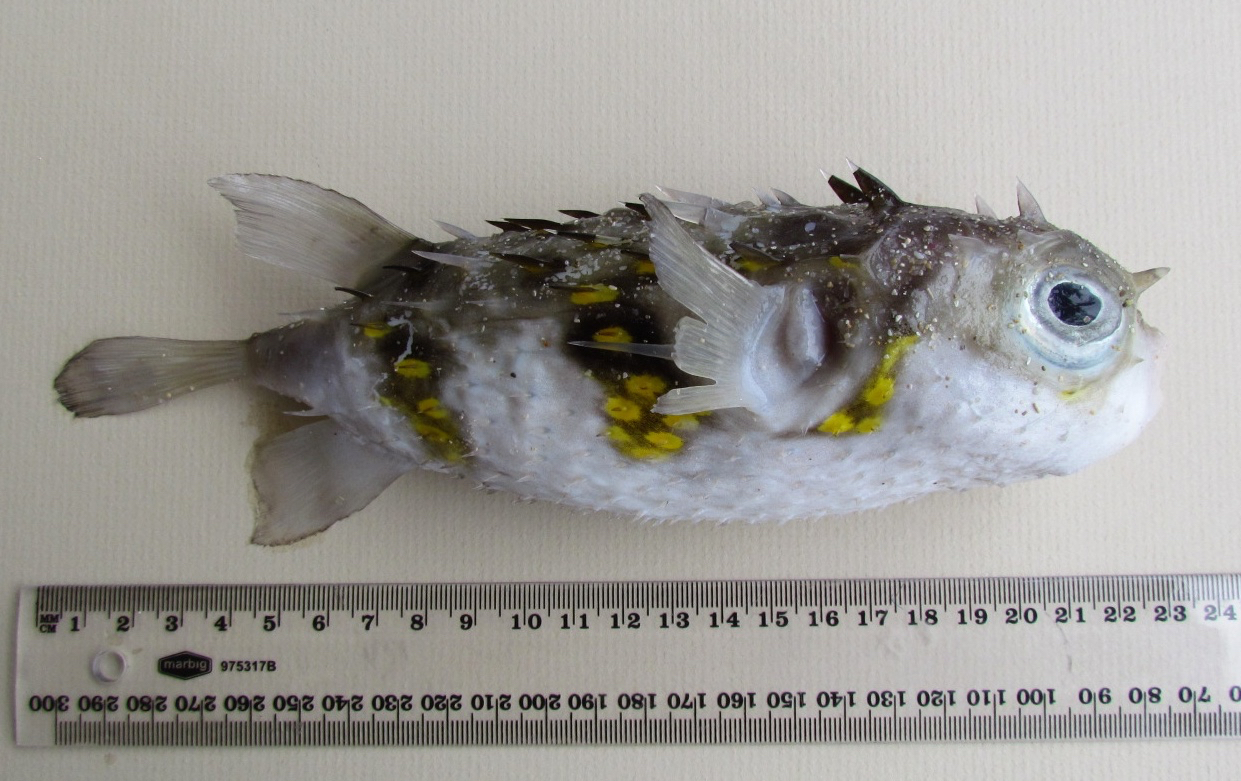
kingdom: Animalia
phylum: Chordata
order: Tetraodontiformes
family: Diodontidae
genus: Allomycterus
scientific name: Allomycterus pilatus
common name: No common name
